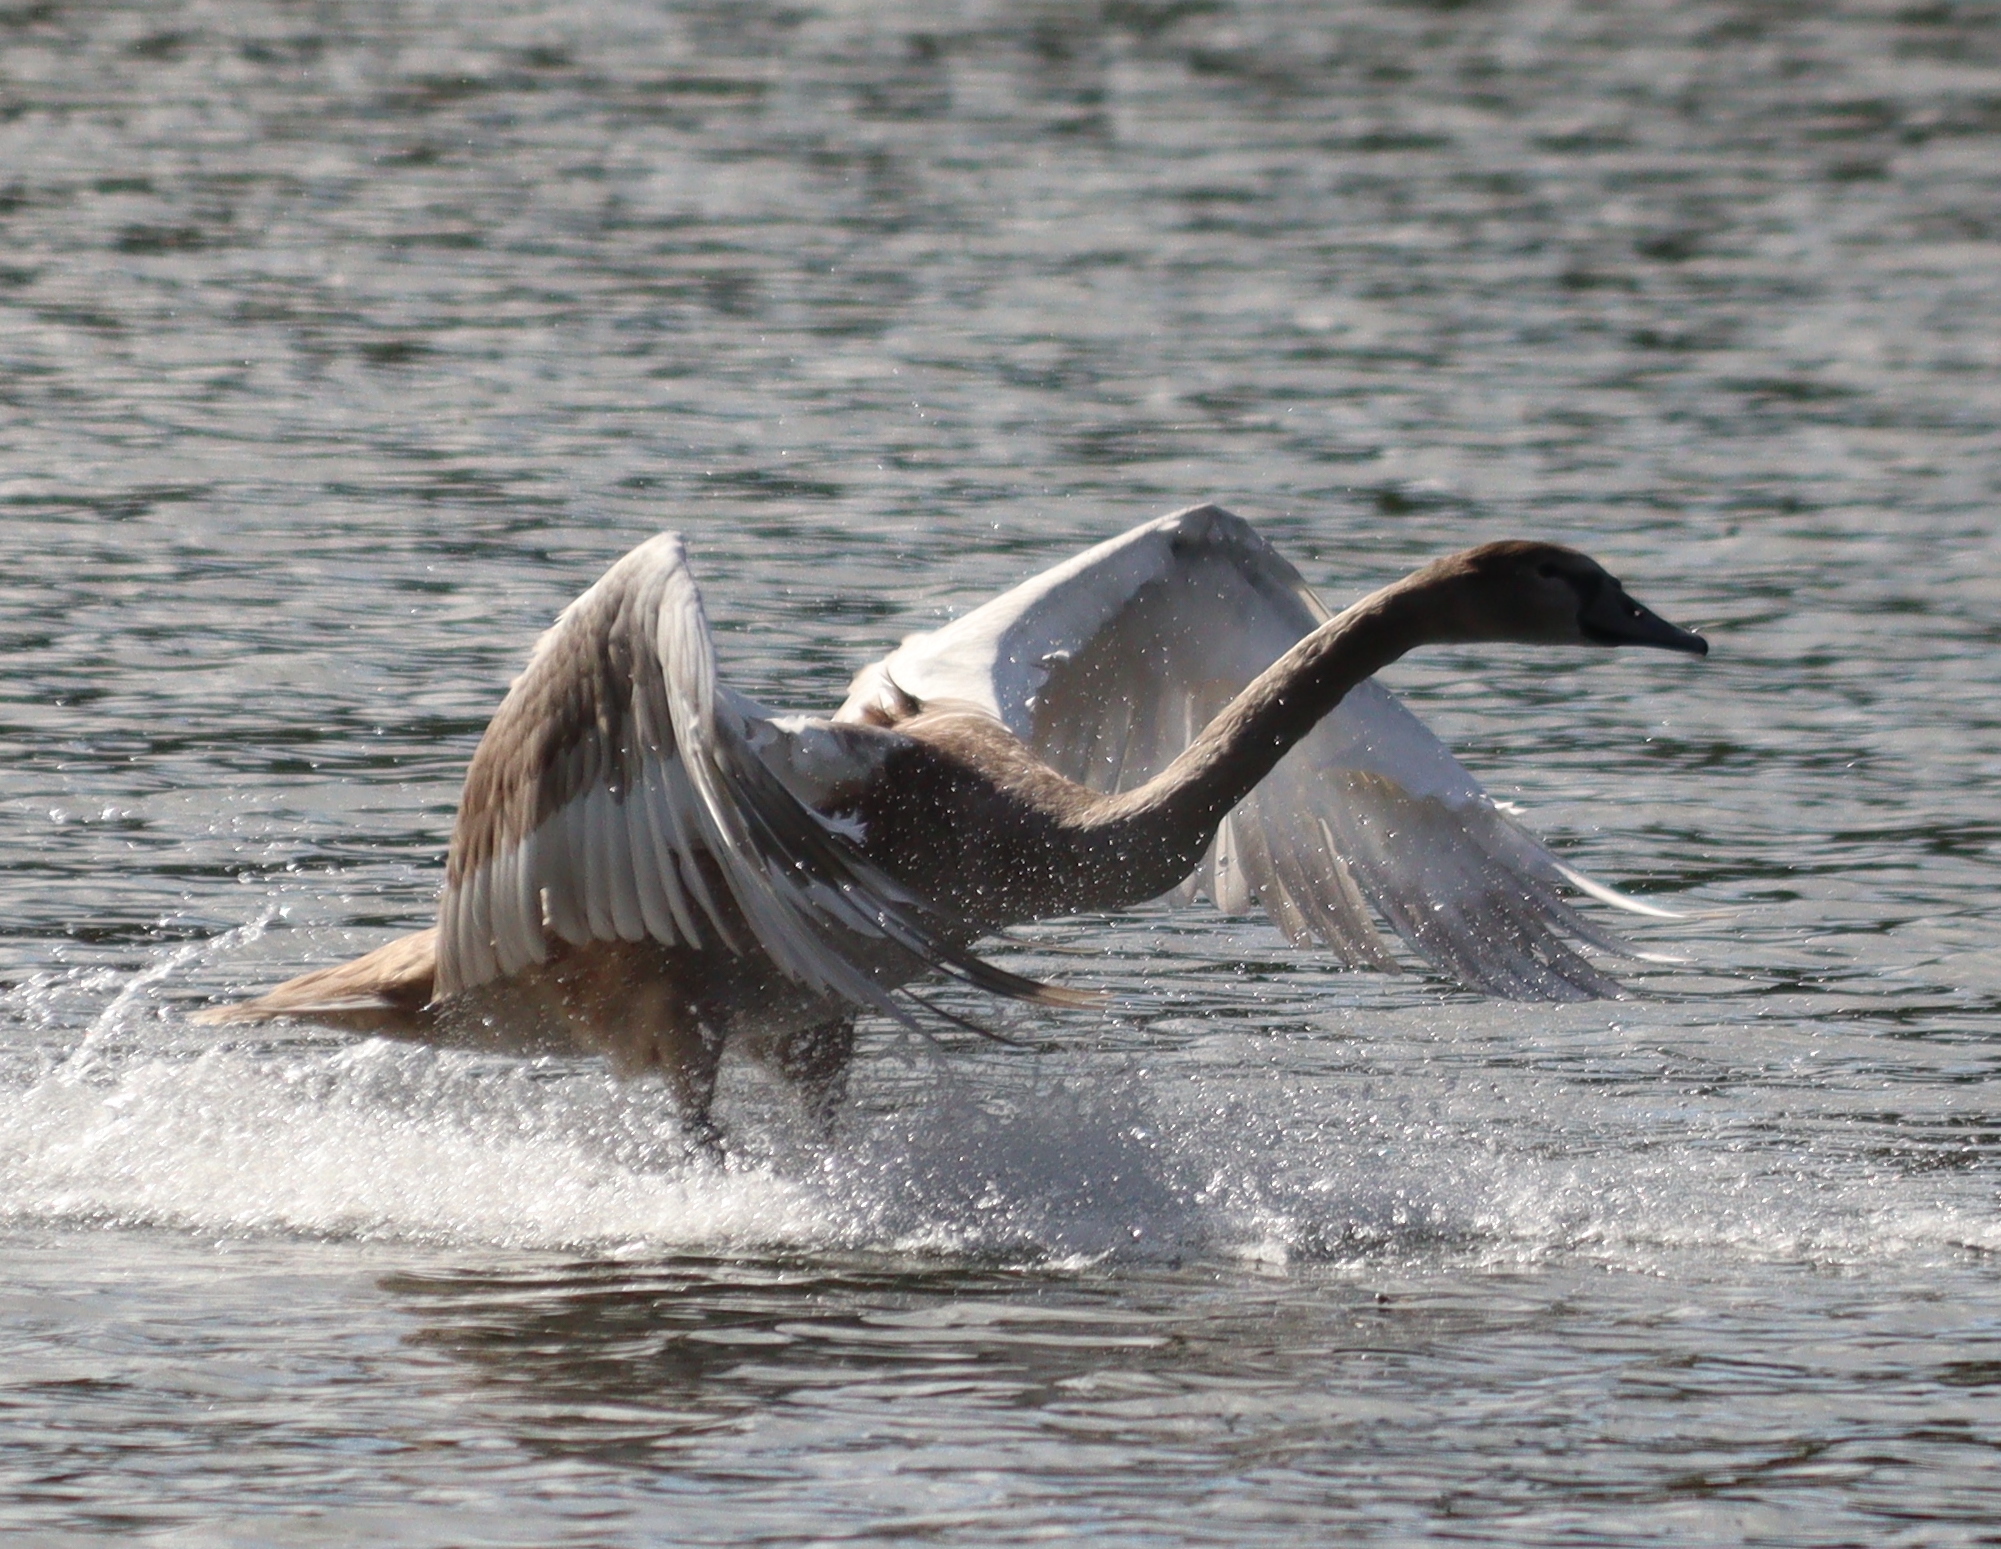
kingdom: Animalia
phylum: Chordata
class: Aves
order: Anseriformes
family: Anatidae
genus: Cygnus
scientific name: Cygnus olor
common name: Mute swan
